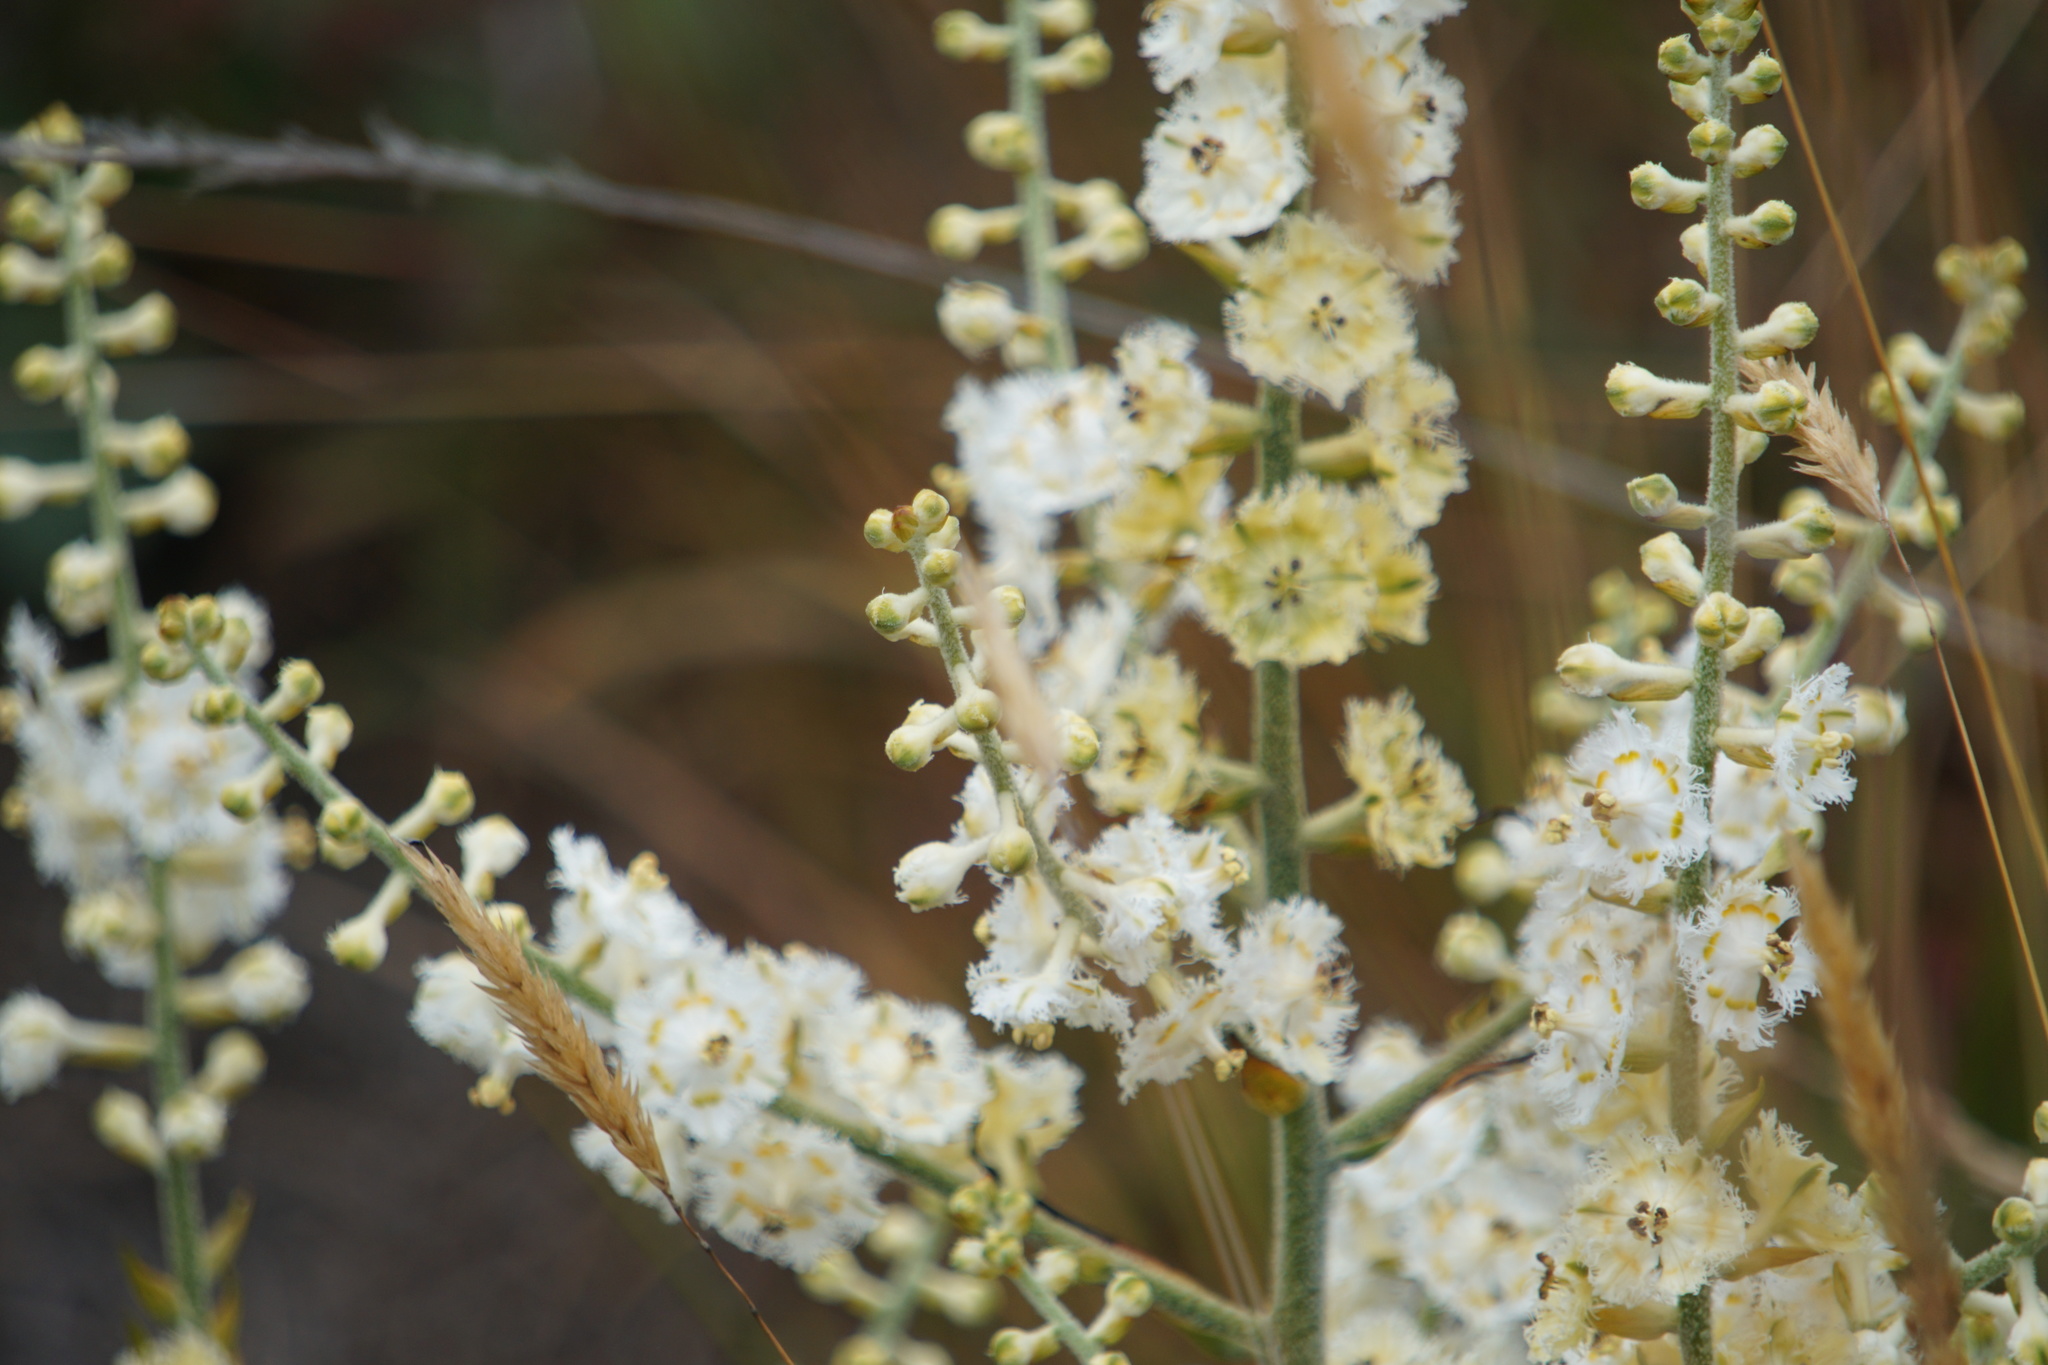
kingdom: Plantae
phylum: Tracheophyta
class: Liliopsida
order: Liliales
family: Melanthiaceae
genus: Veratrum
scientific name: Veratrum fimbriatum
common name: Fringe false hellobore
